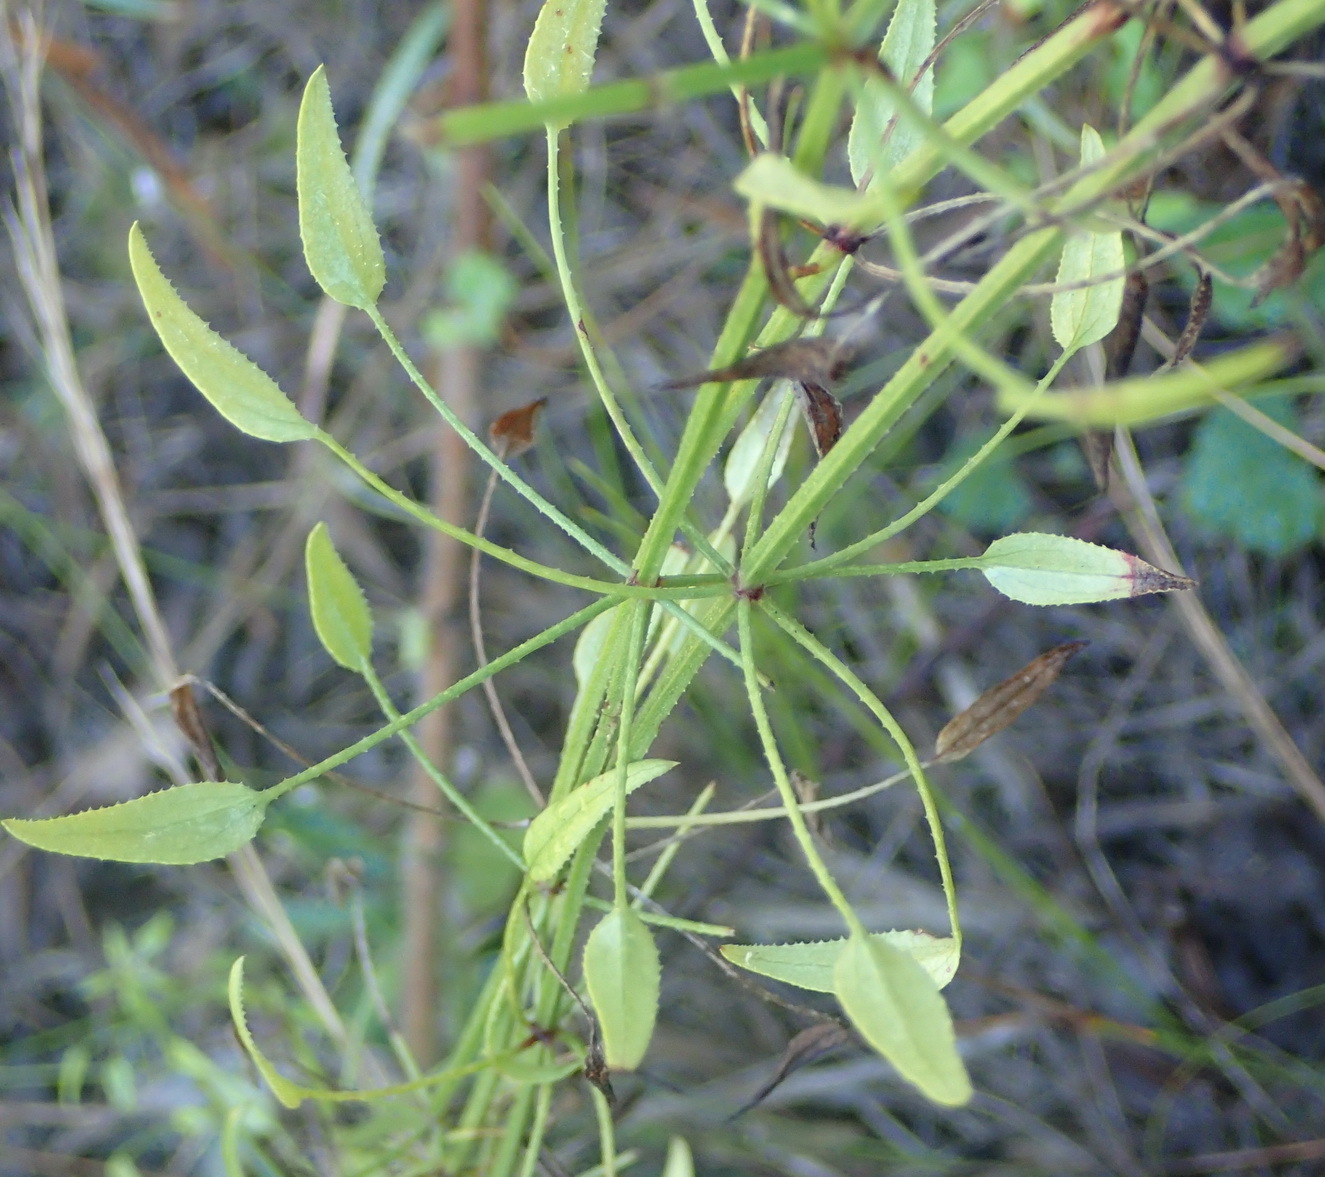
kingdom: Plantae
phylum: Tracheophyta
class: Magnoliopsida
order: Gentianales
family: Rubiaceae
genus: Rubia
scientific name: Rubia petiolaris
